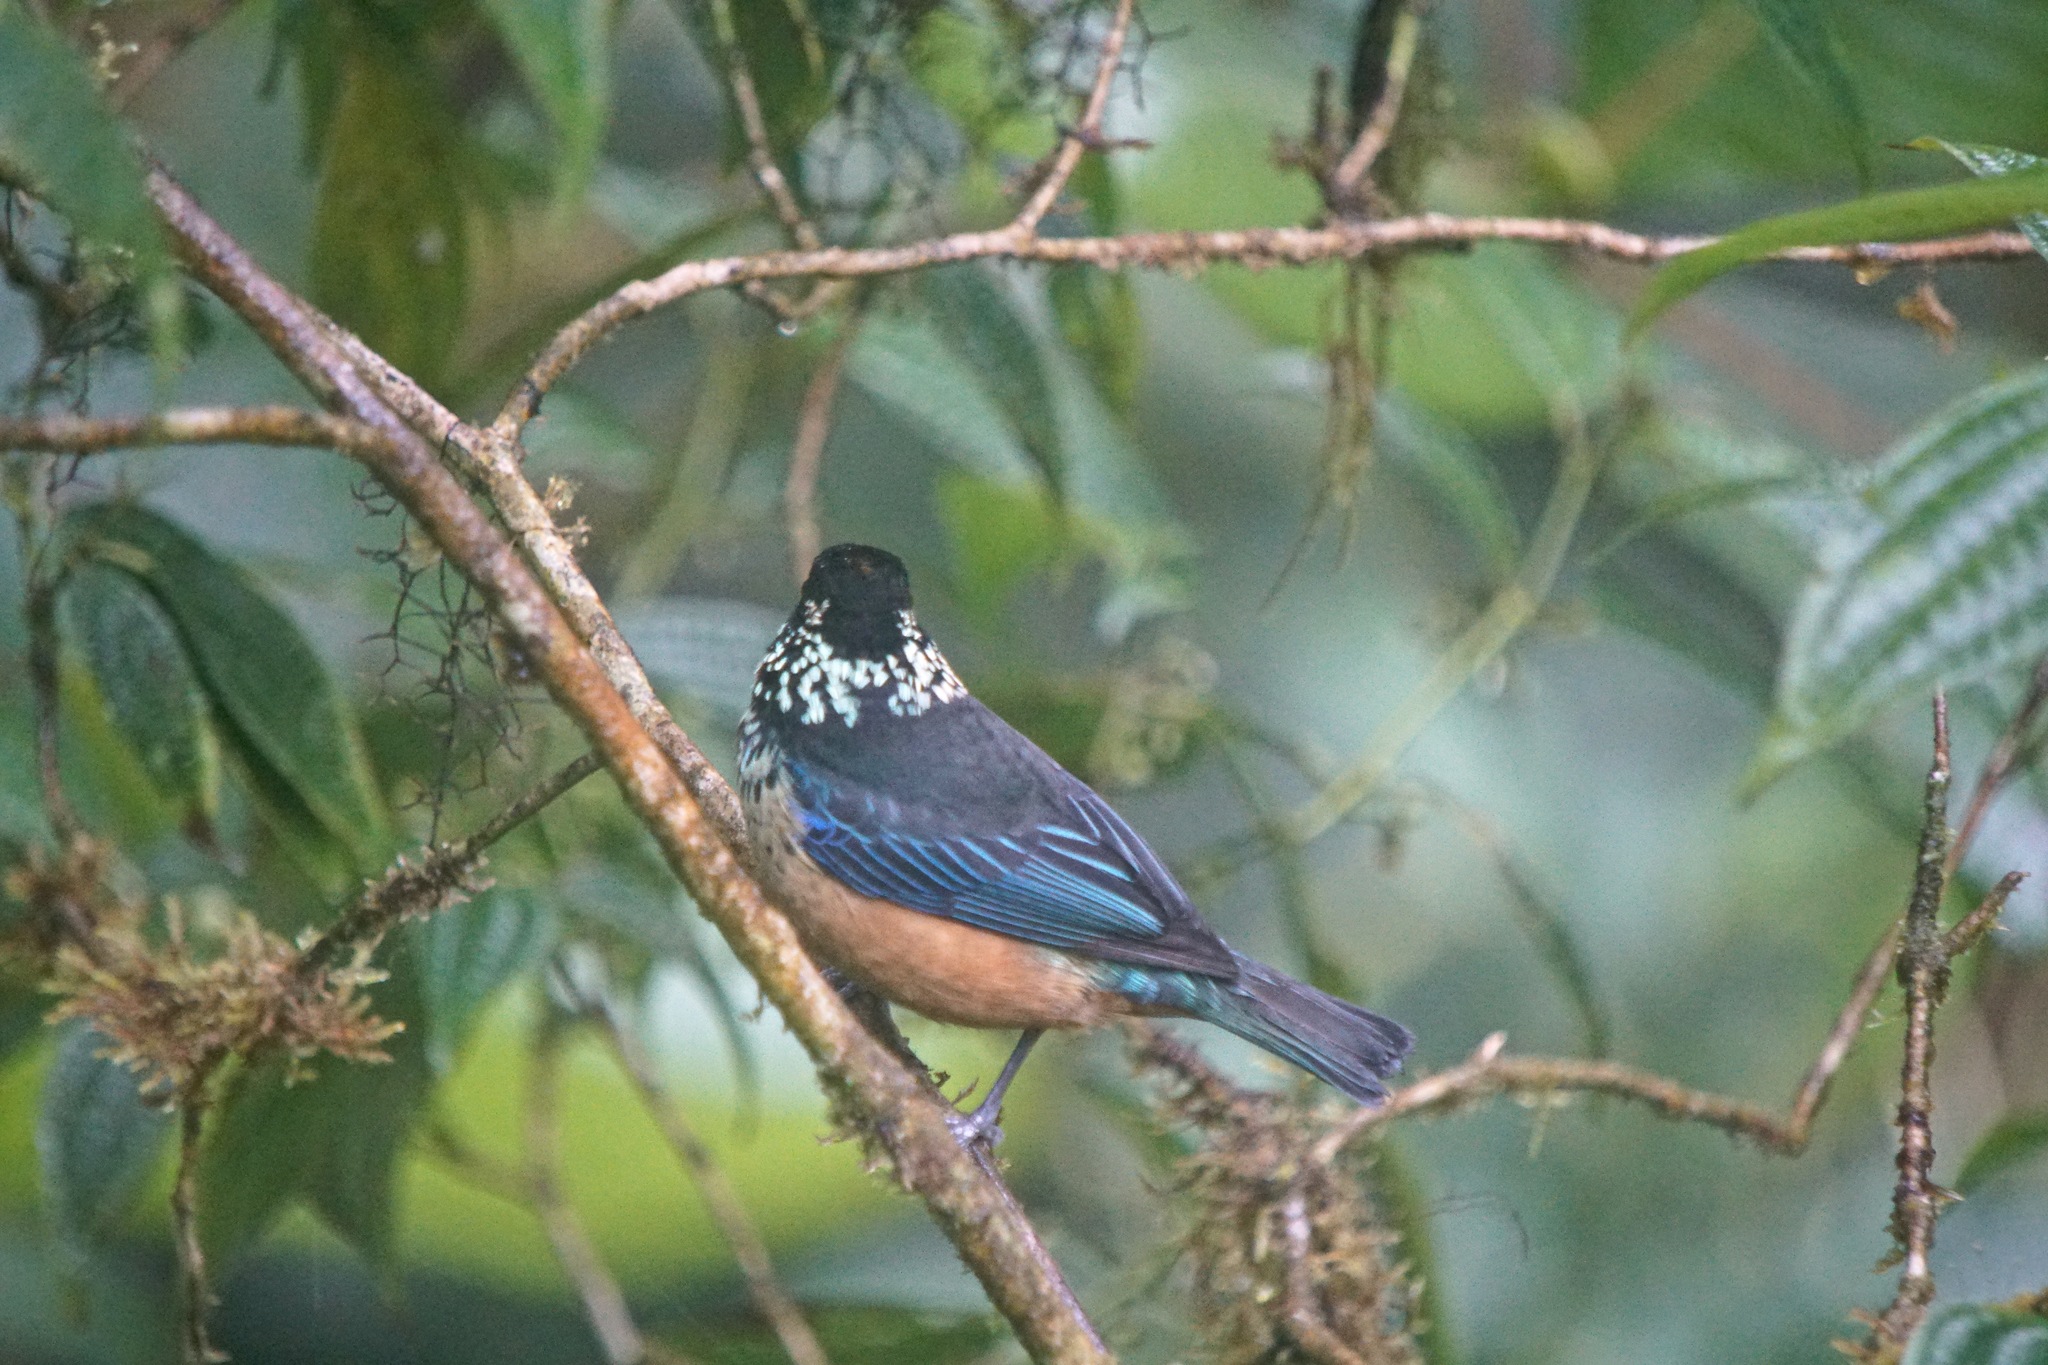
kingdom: Animalia
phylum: Chordata
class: Aves
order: Passeriformes
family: Thraupidae
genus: Tangara
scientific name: Tangara dowii
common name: Spangle-cheeked tanager
